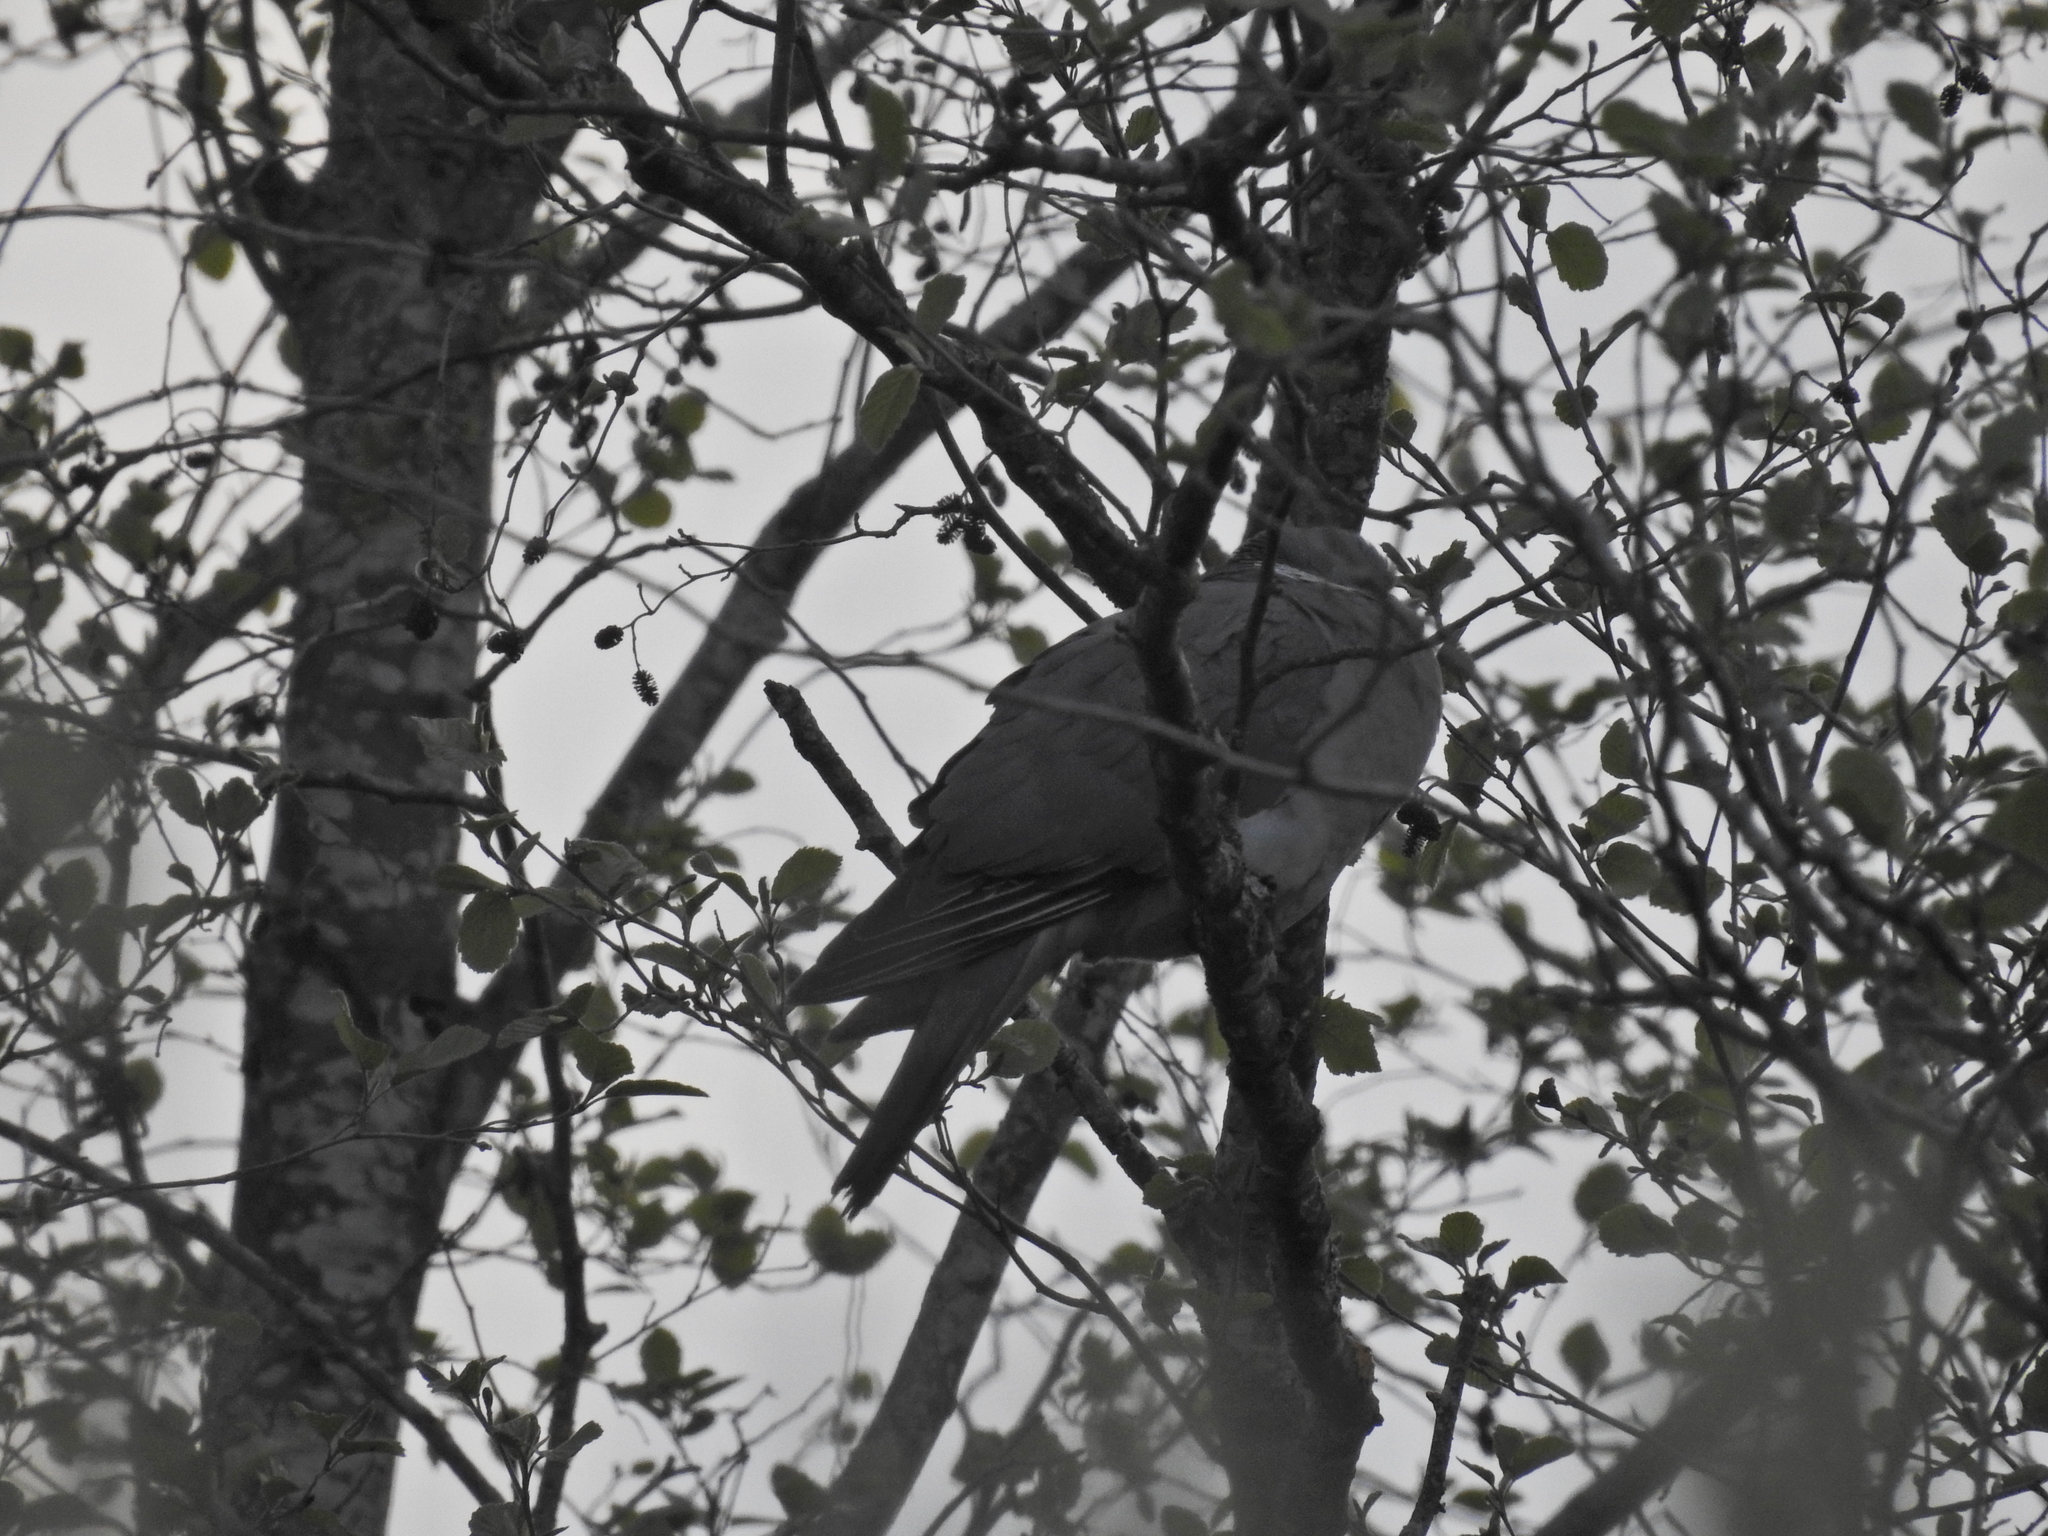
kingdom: Animalia
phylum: Chordata
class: Aves
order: Columbiformes
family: Columbidae
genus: Columba
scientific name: Columba palumbus
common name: Common wood pigeon
